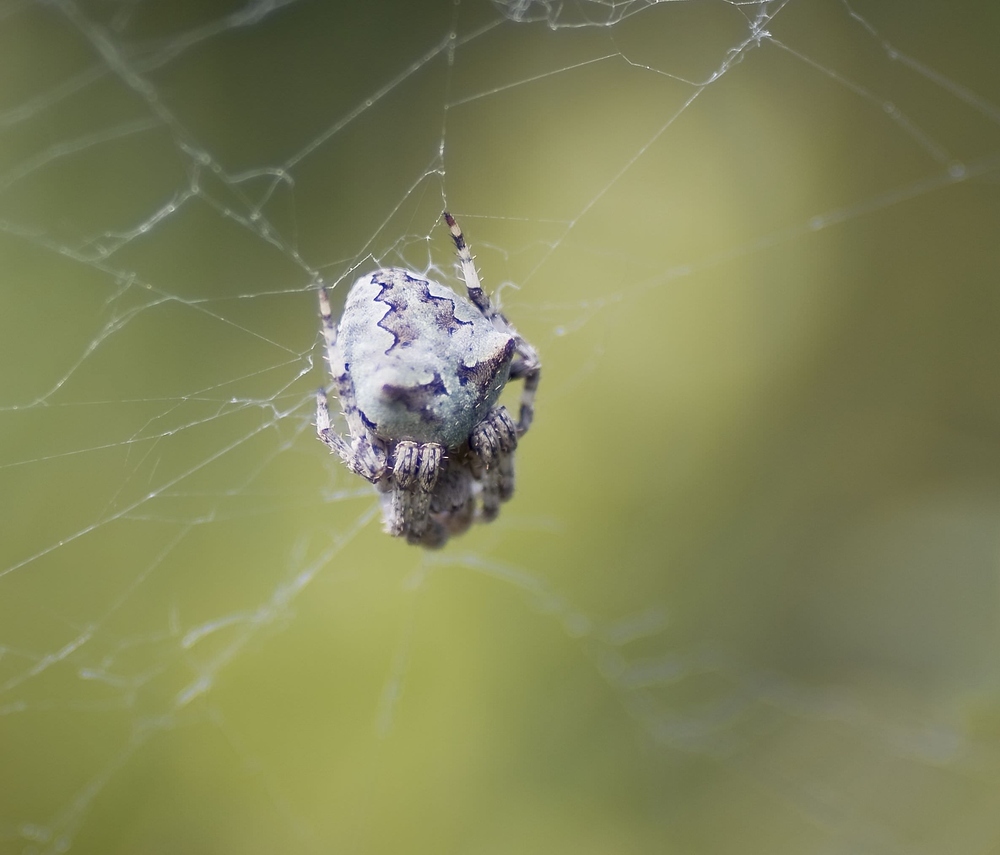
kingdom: Animalia
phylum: Arthropoda
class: Arachnida
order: Araneae
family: Araneidae
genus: Araneus
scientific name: Araneus angulatus
